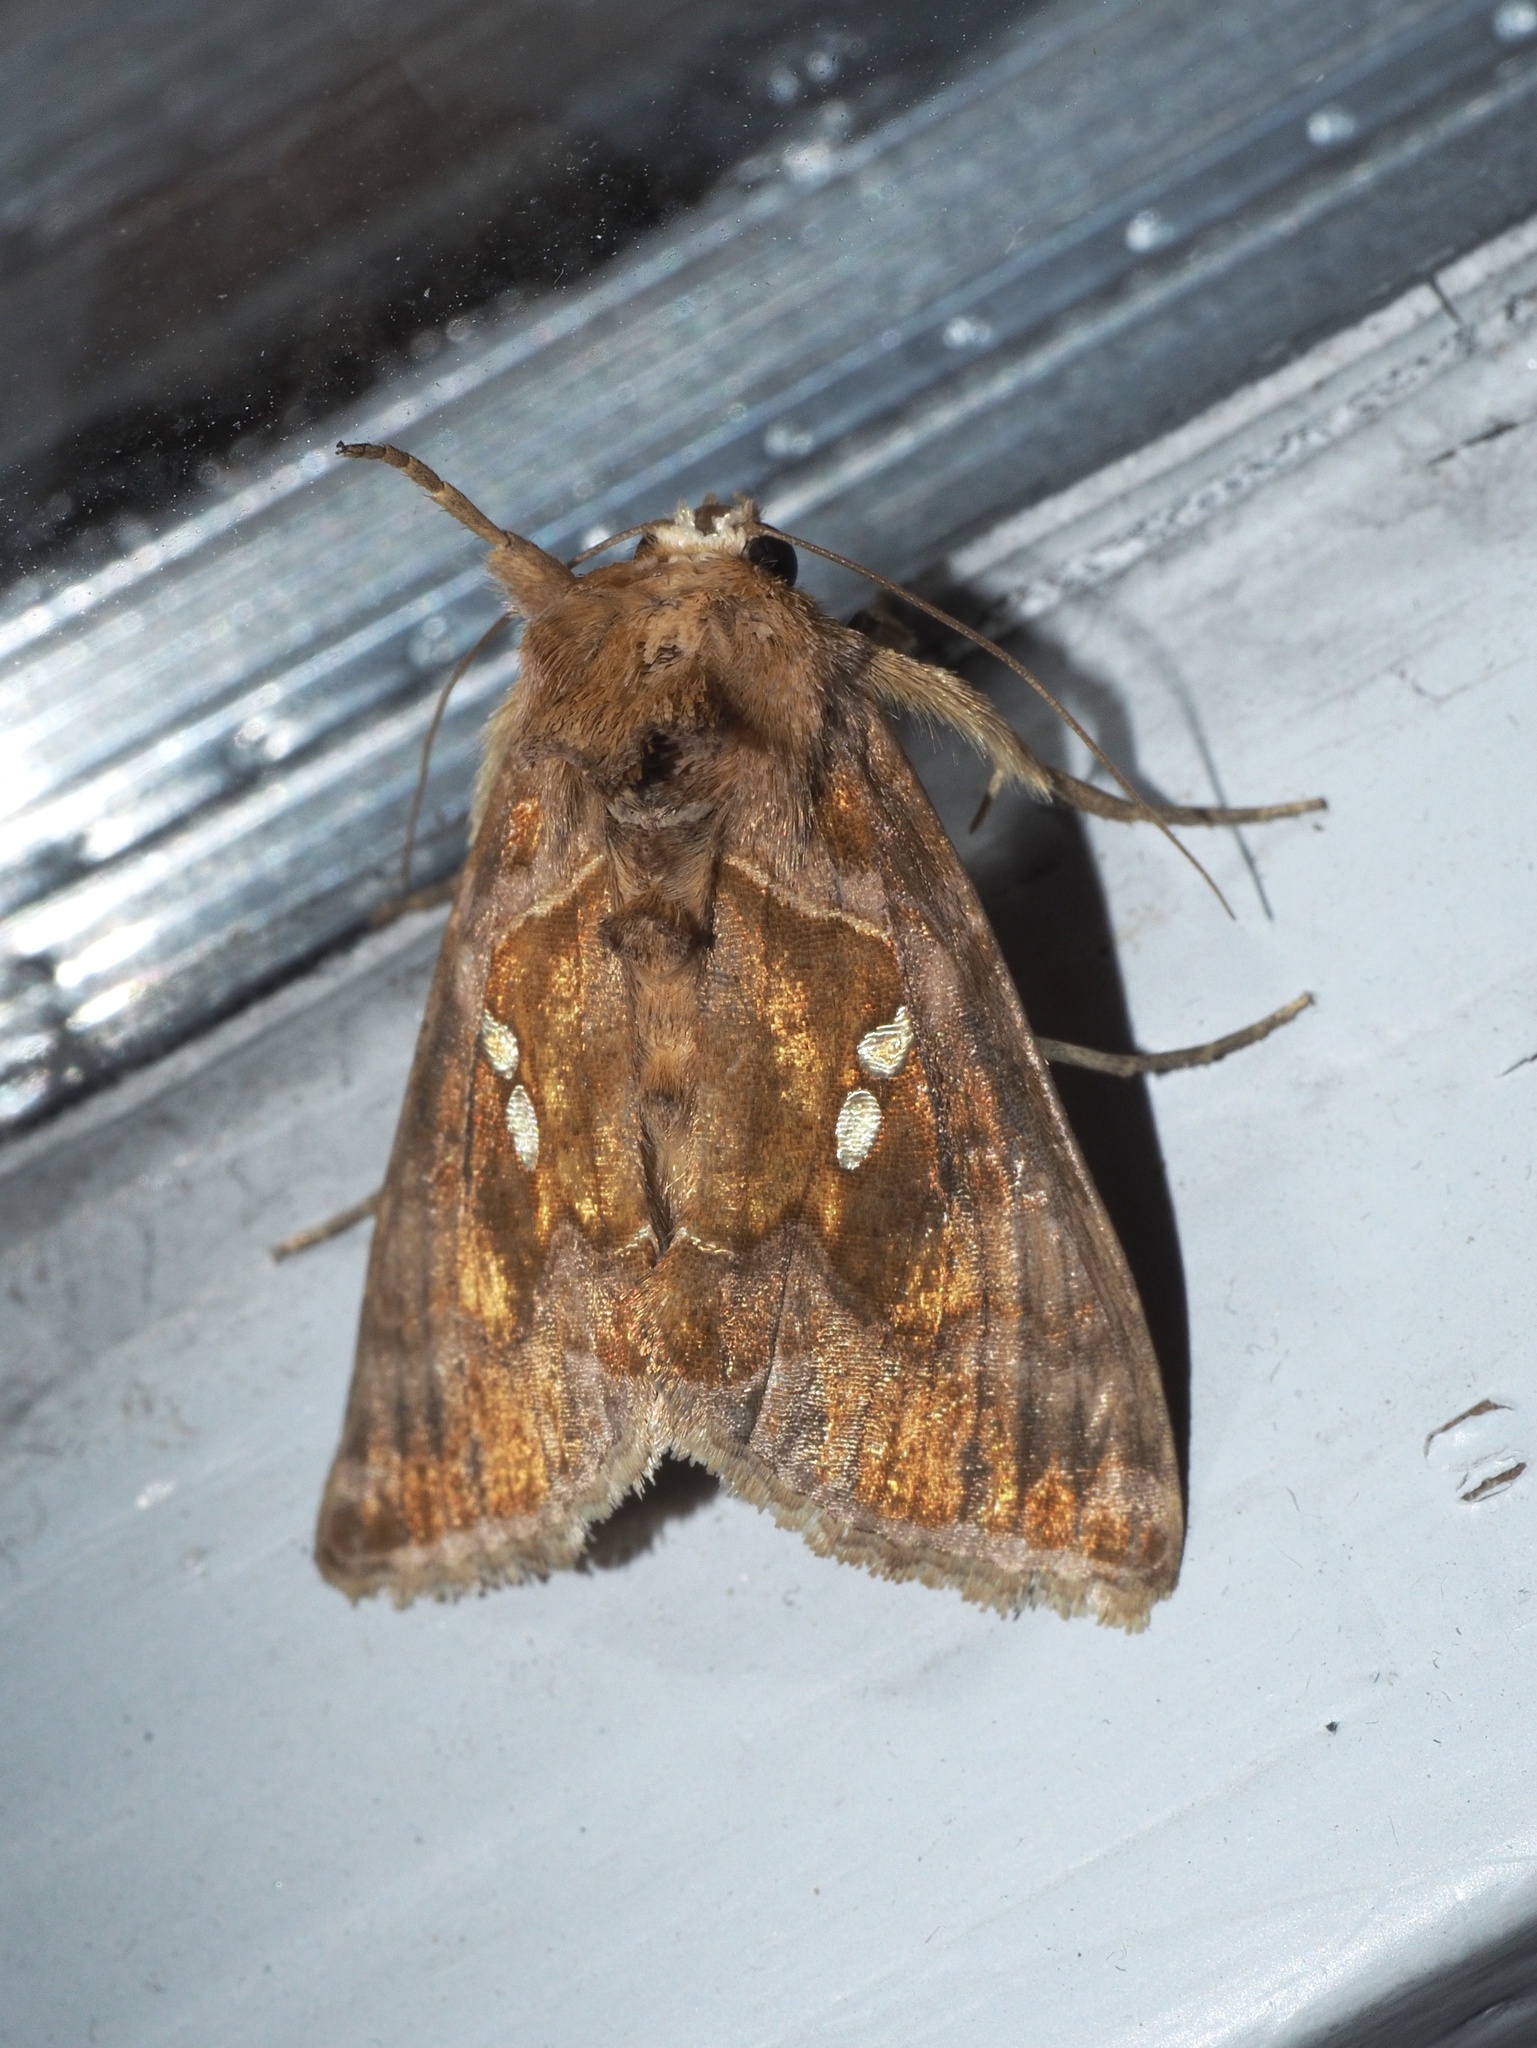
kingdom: Animalia
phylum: Arthropoda
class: Insecta
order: Lepidoptera
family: Noctuidae
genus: Chrysodeixis
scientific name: Chrysodeixis chalcites
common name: Golden twin-spot
